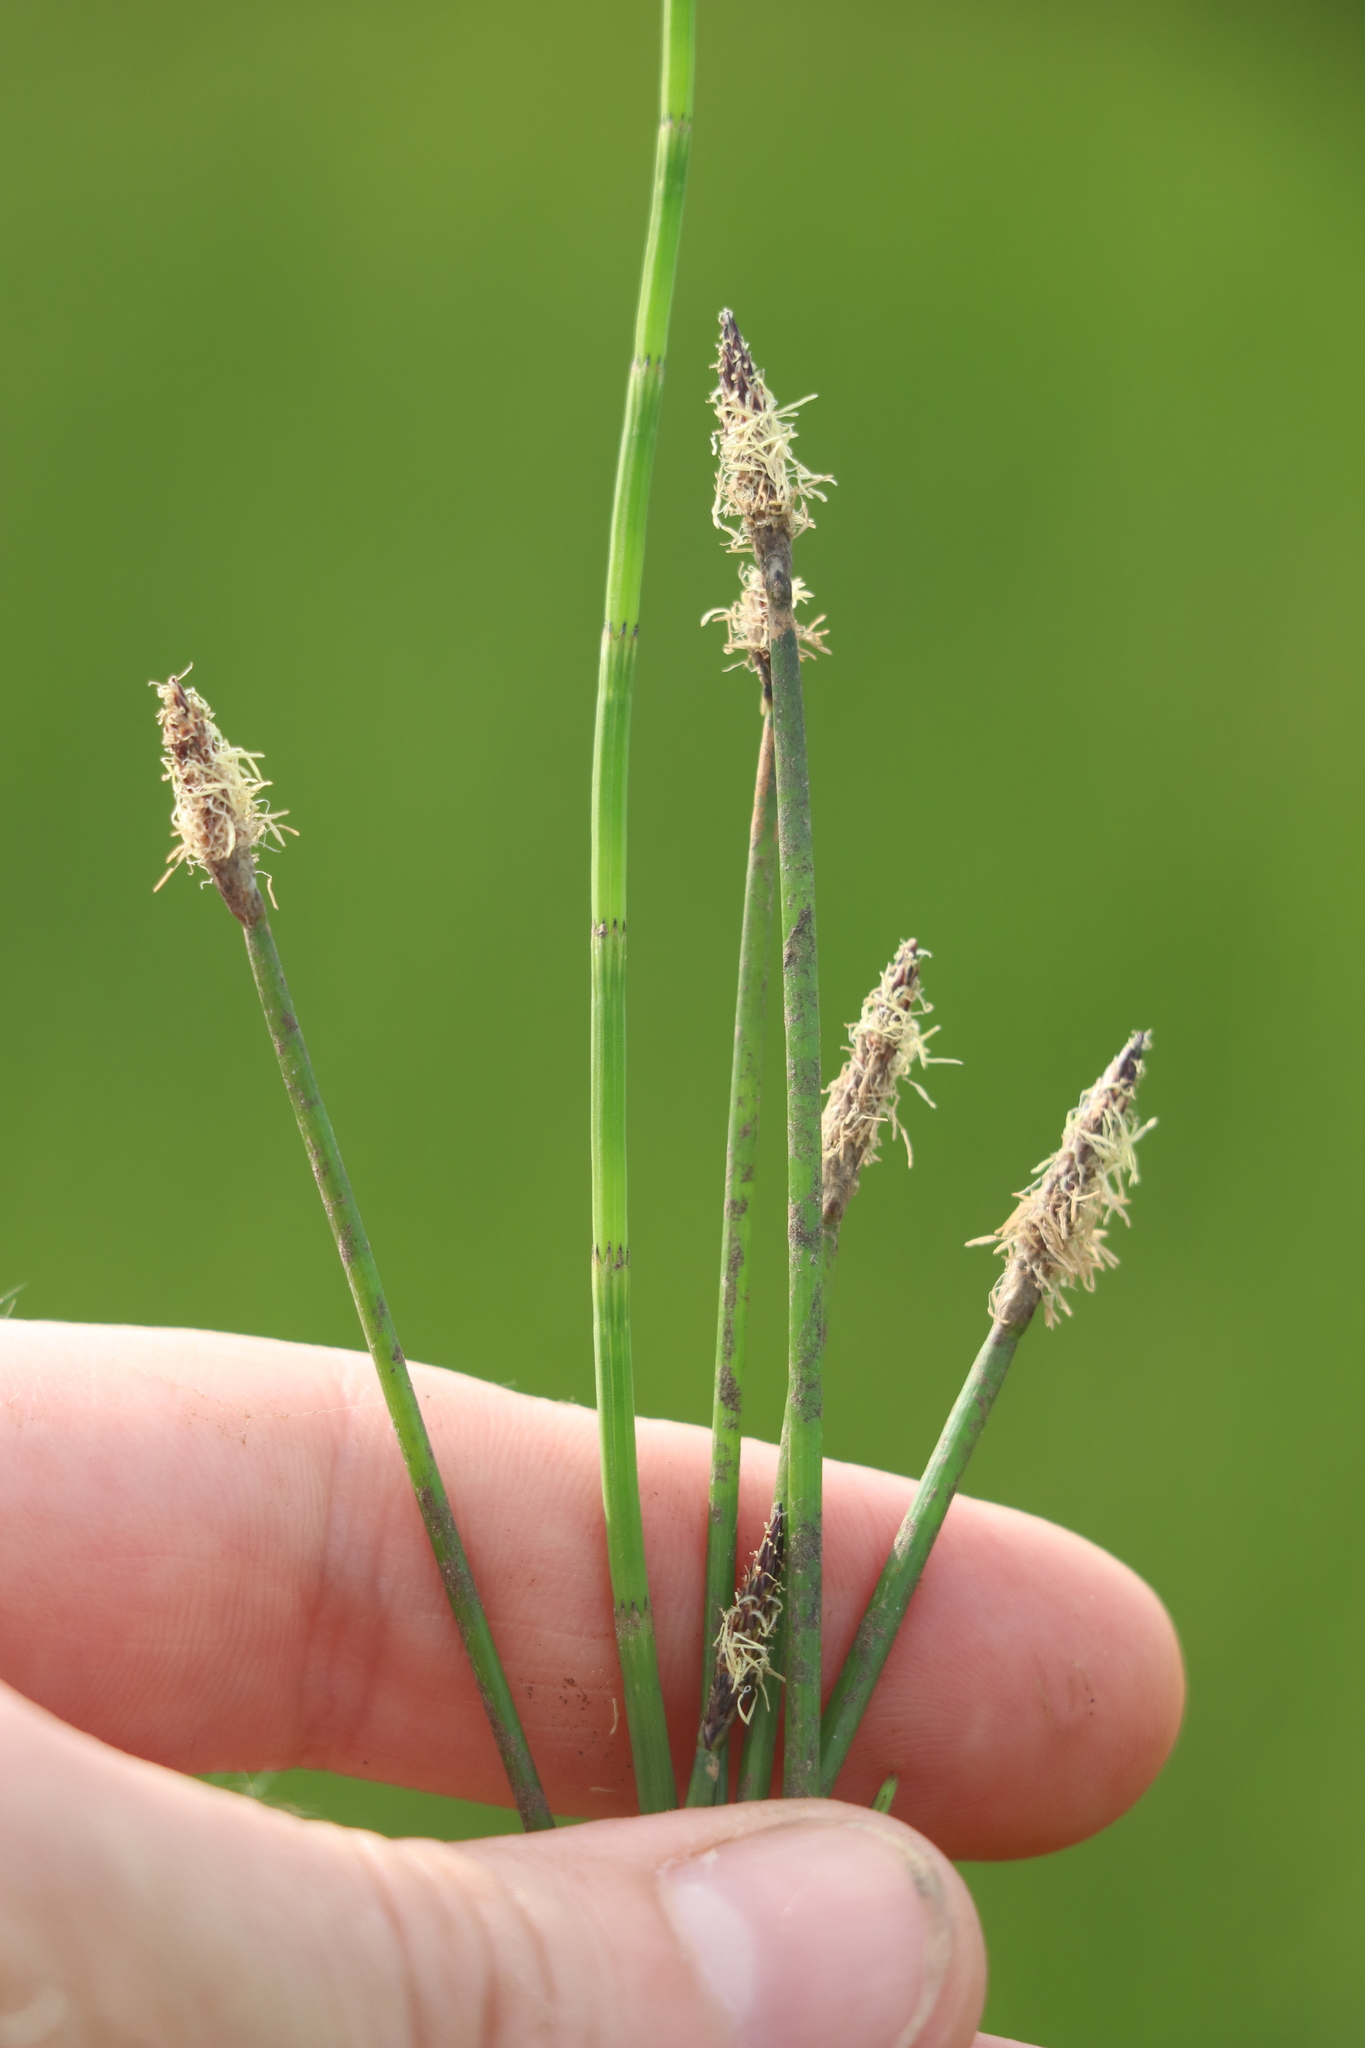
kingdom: Plantae
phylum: Tracheophyta
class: Liliopsida
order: Poales
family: Cyperaceae
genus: Eleocharis
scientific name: Eleocharis palustris
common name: Common spike-rush
